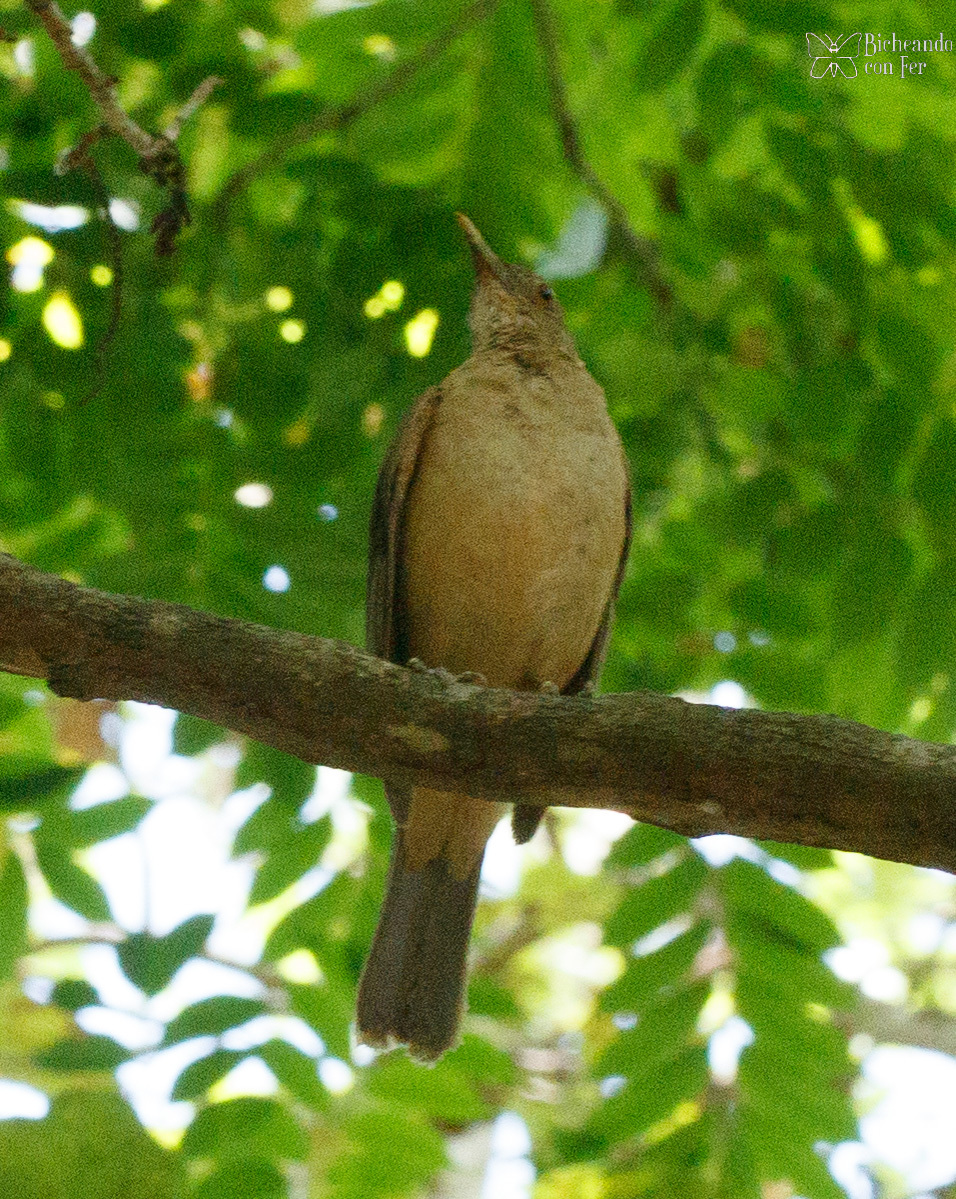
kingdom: Animalia
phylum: Chordata
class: Aves
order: Passeriformes
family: Turdidae
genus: Turdus
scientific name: Turdus grayi
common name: Clay-colored thrush
